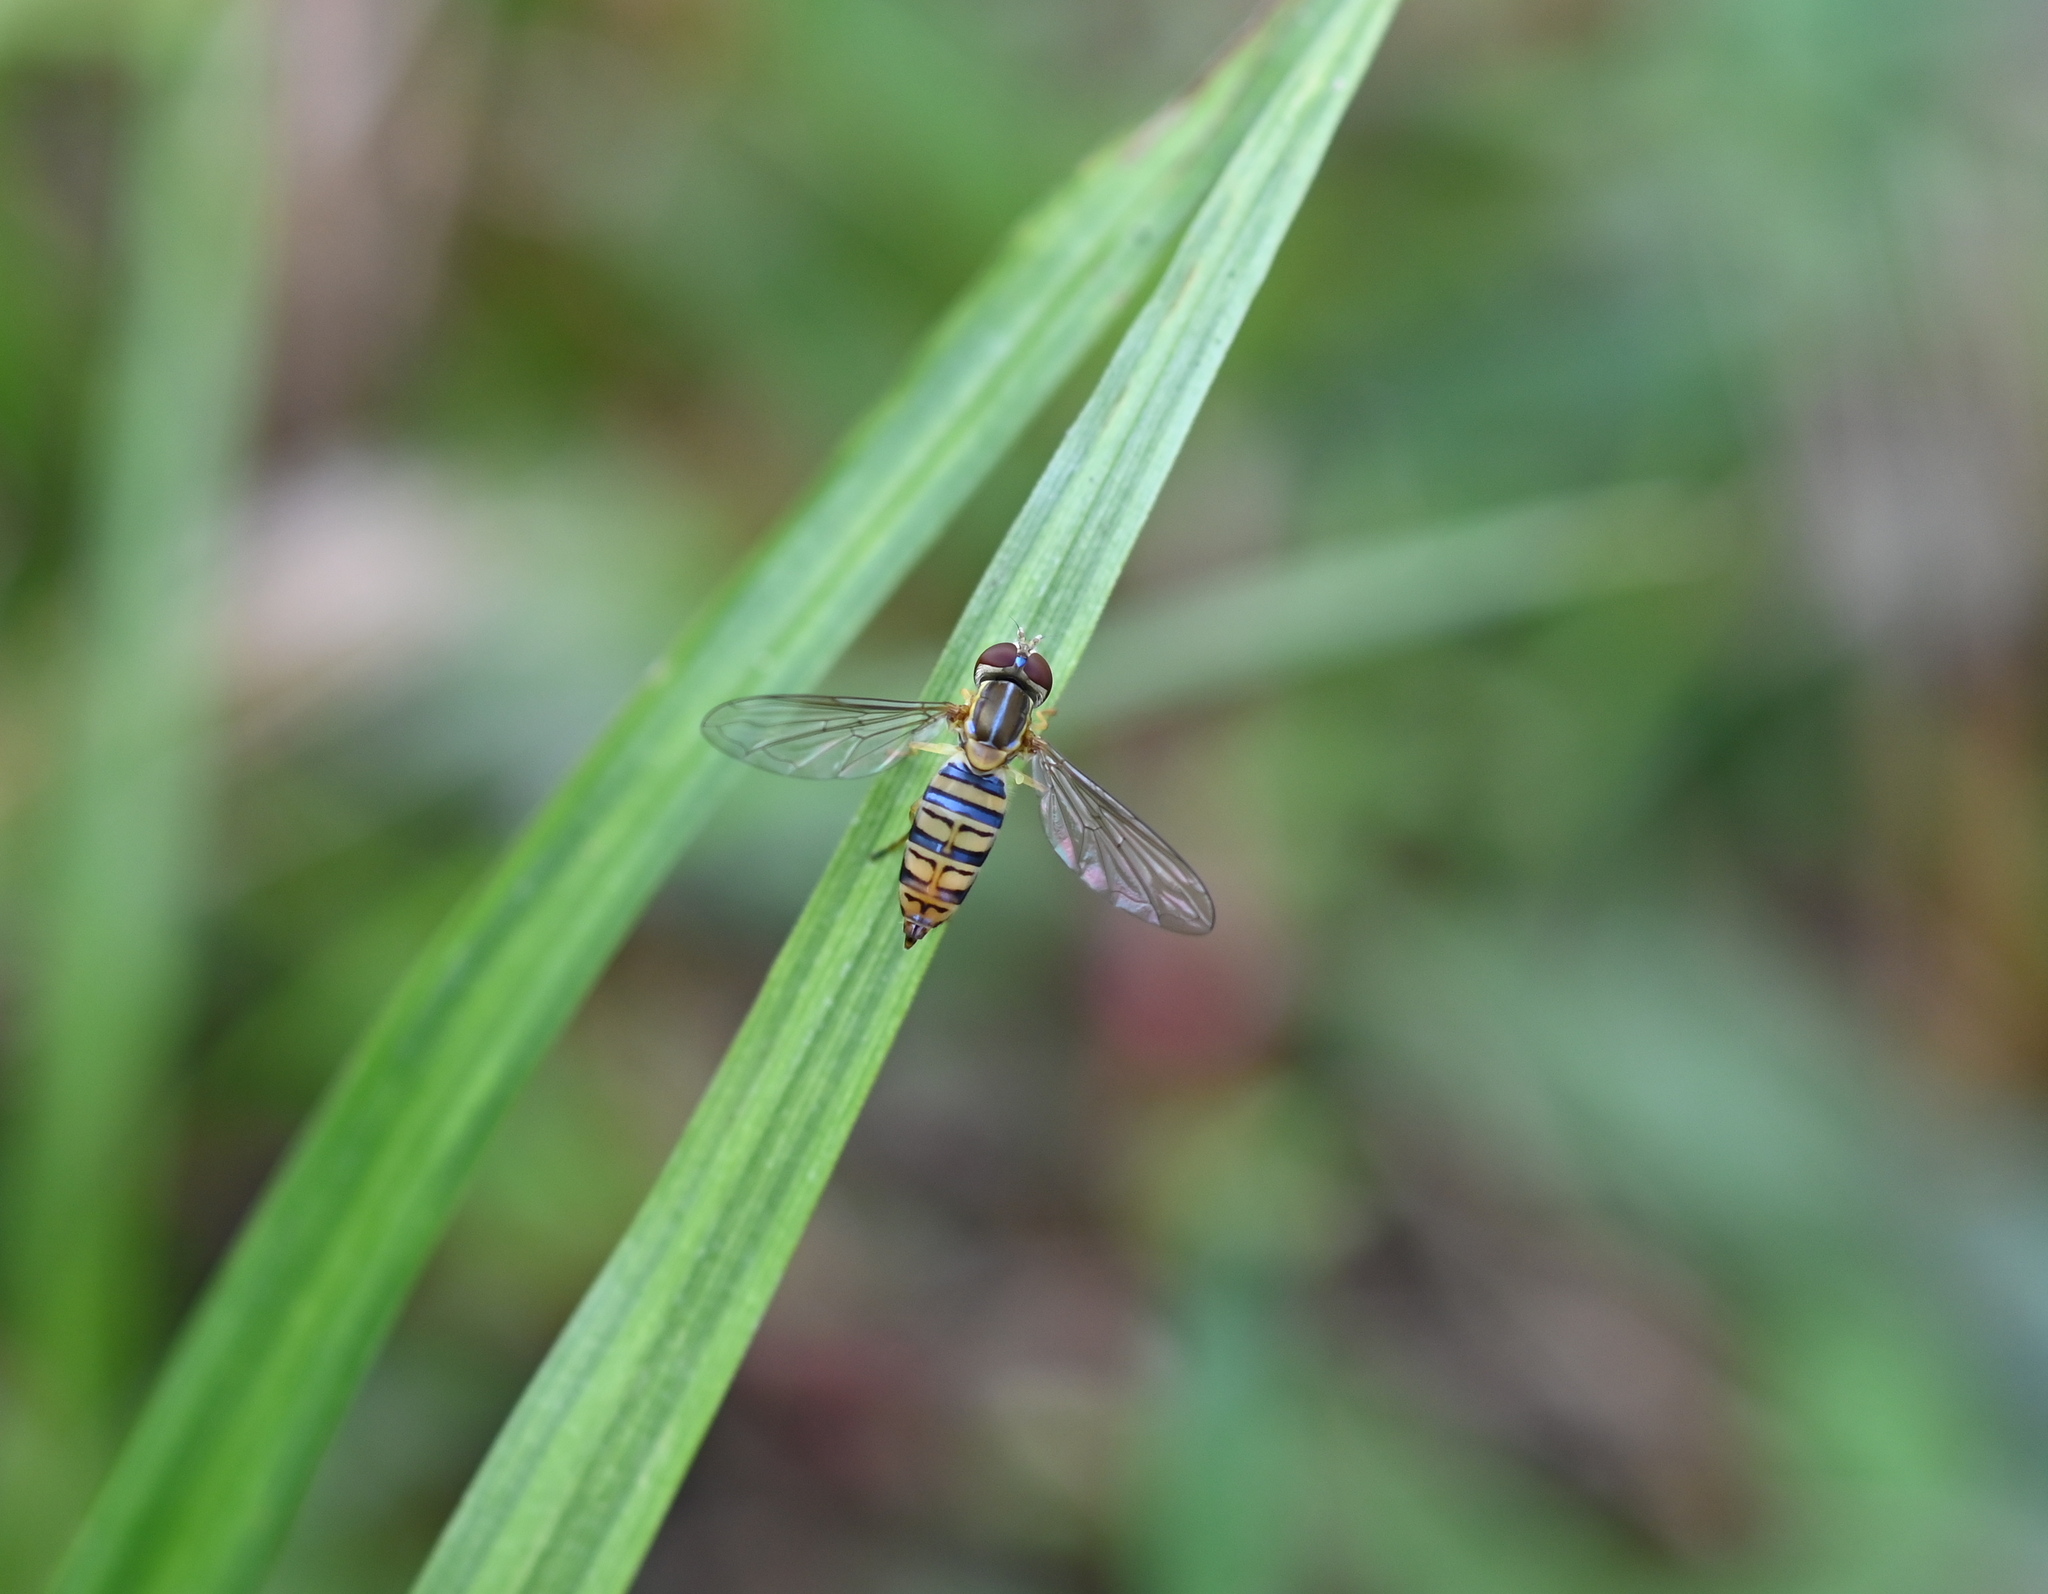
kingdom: Animalia
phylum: Arthropoda
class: Insecta
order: Diptera
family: Syrphidae
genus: Toxomerus
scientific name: Toxomerus politus
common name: Maize calligrapher
